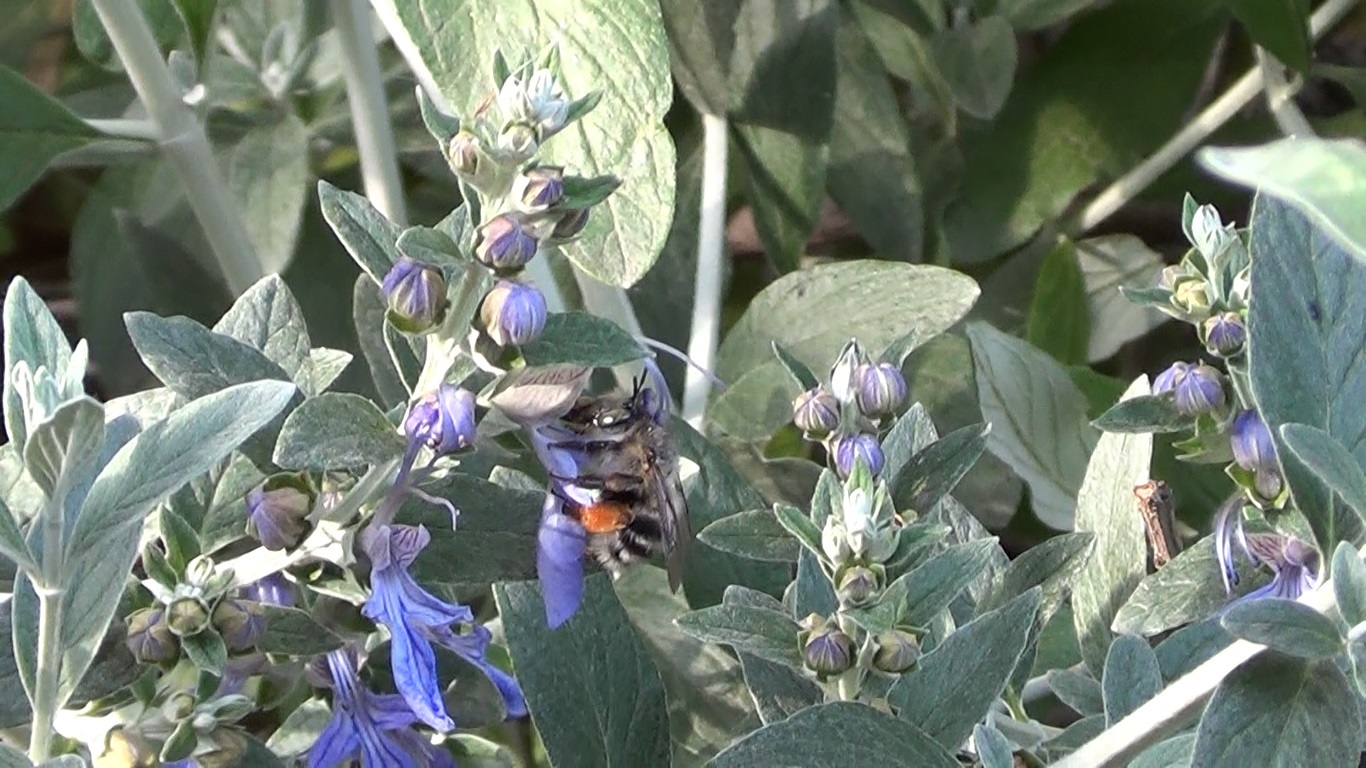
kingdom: Animalia
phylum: Arthropoda
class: Insecta
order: Hymenoptera
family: Apidae
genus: Anthophora
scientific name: Anthophora dispar
